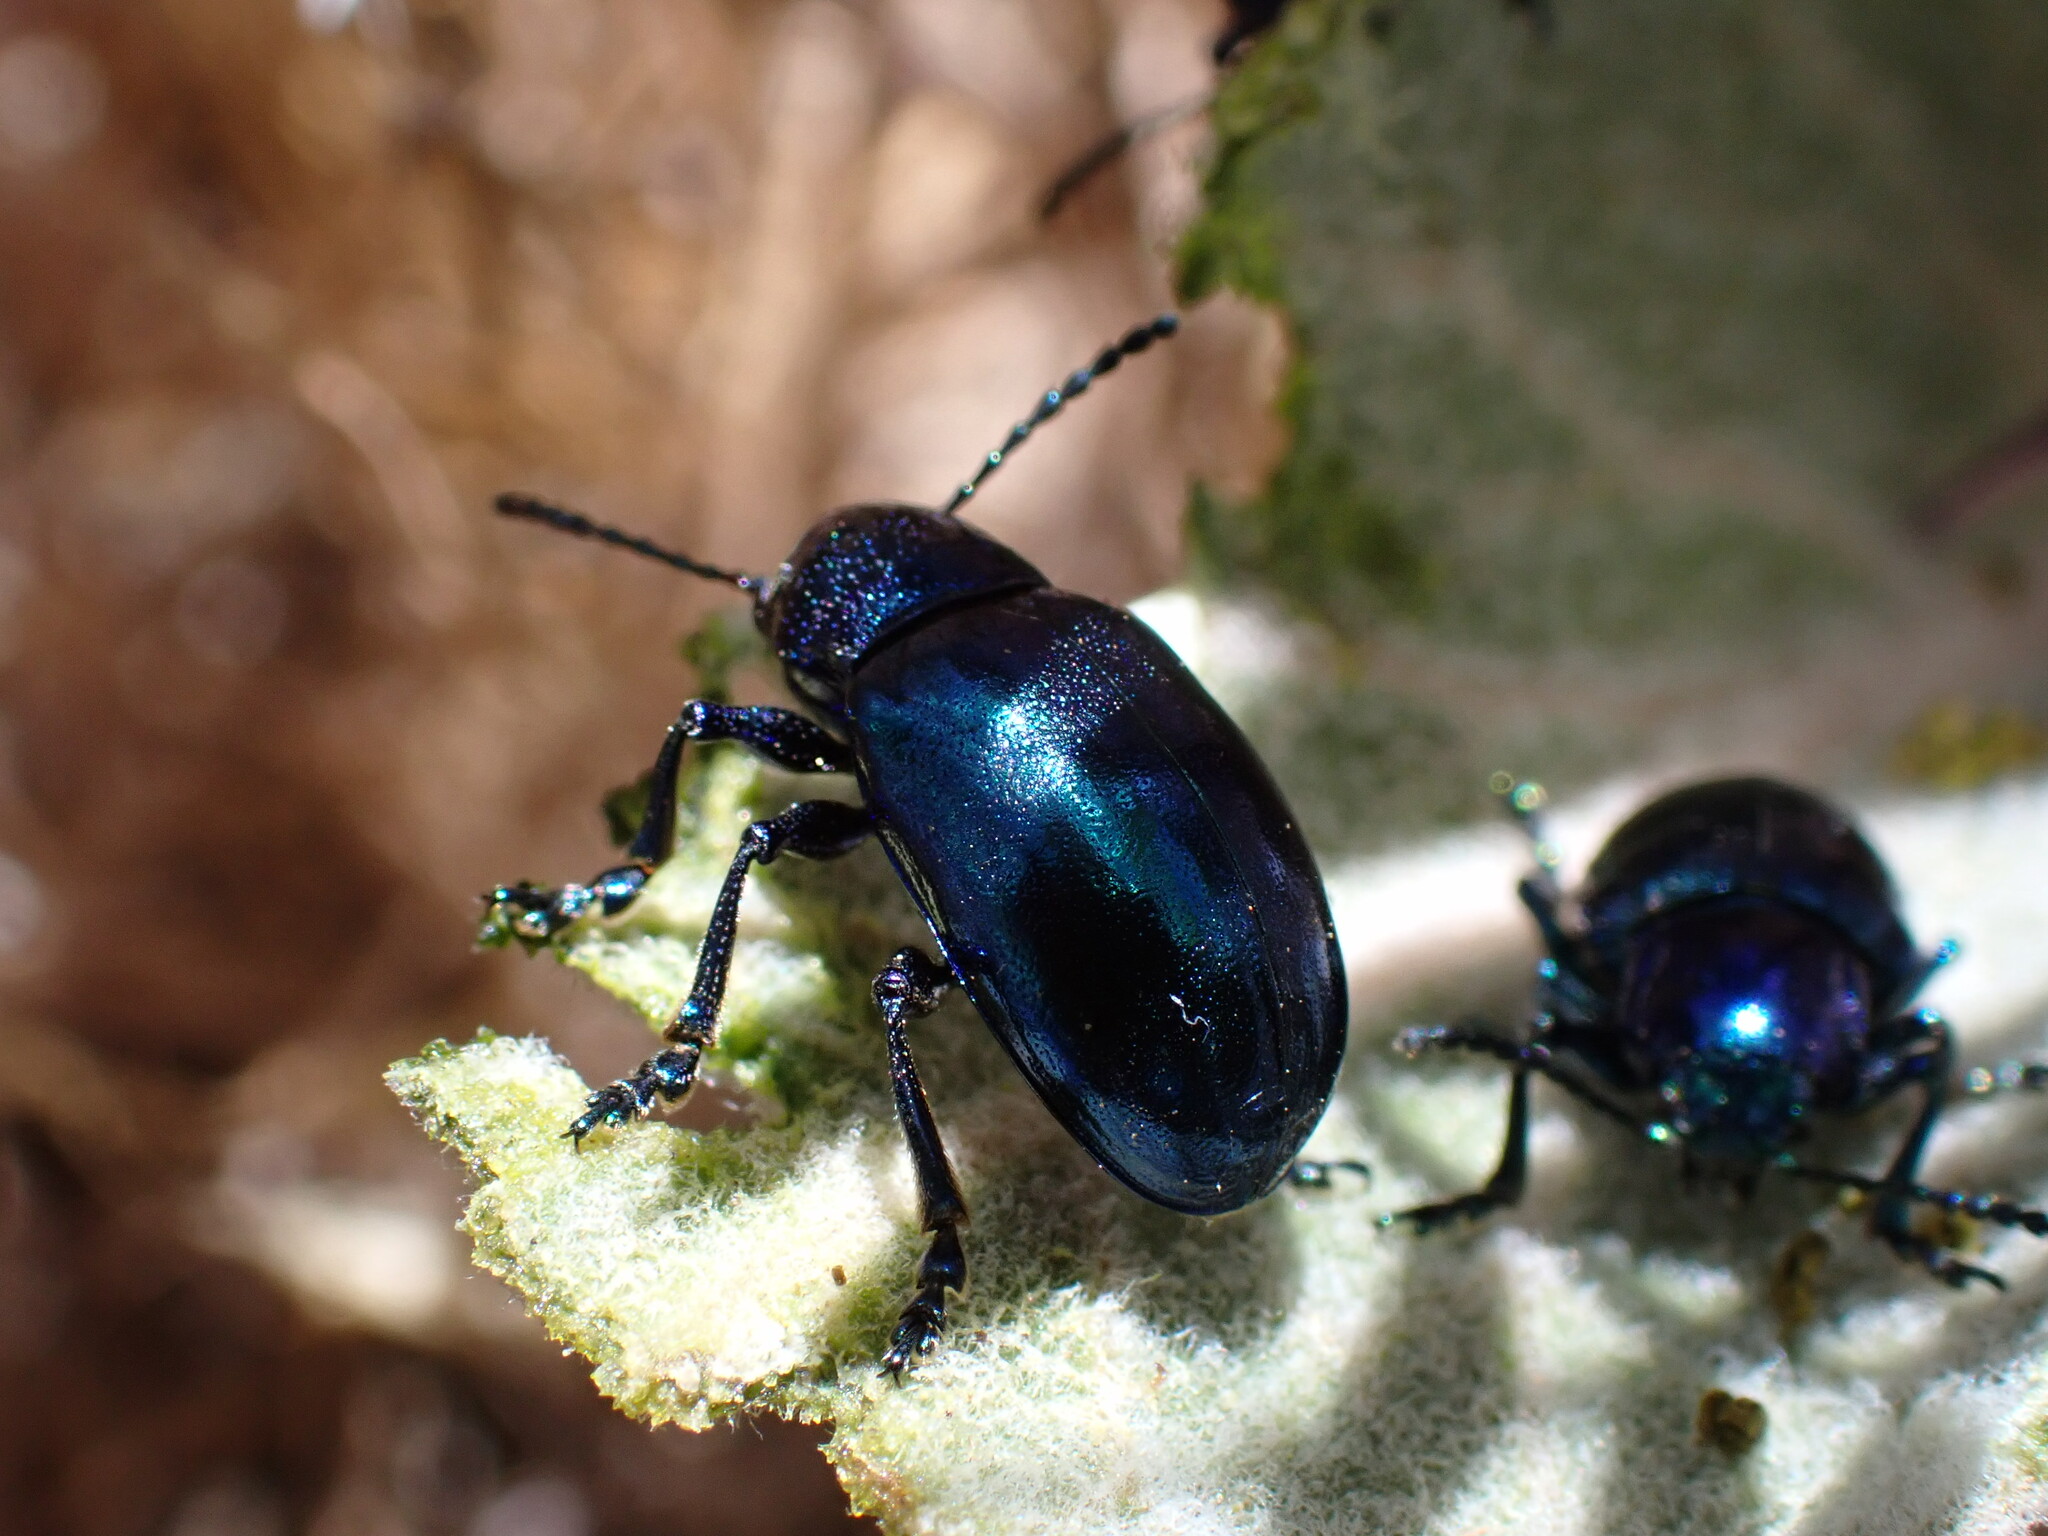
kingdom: Animalia
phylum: Arthropoda
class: Insecta
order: Coleoptera
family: Chrysomelidae
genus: Chrysochus
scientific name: Chrysochus cobaltinus
